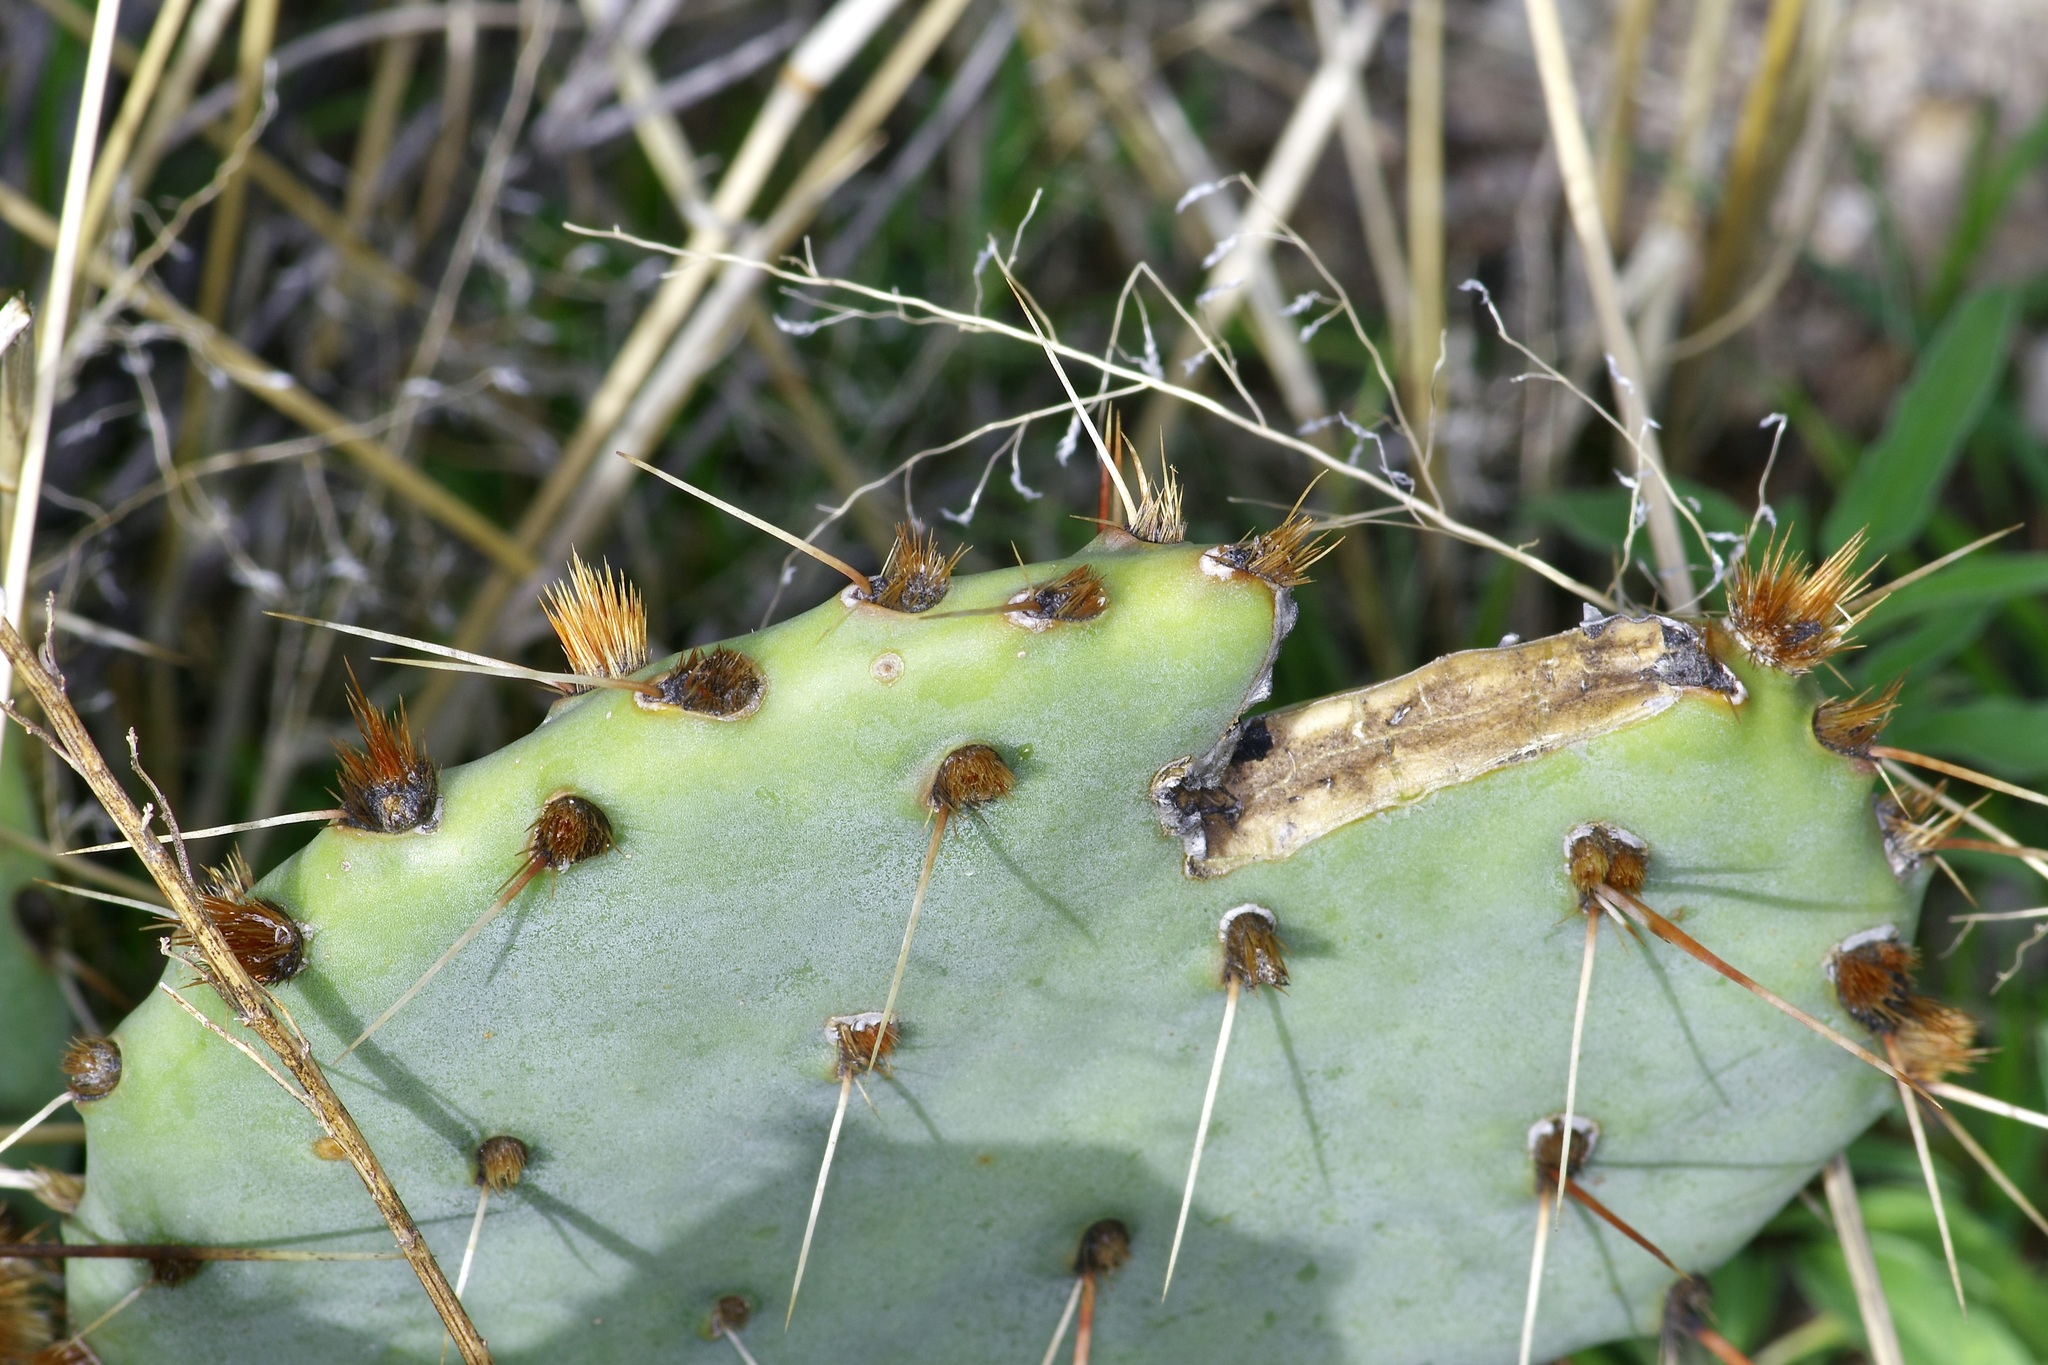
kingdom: Plantae
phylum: Tracheophyta
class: Magnoliopsida
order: Caryophyllales
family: Cactaceae
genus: Opuntia
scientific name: Opuntia phaeacantha
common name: New mexico prickly-pear
